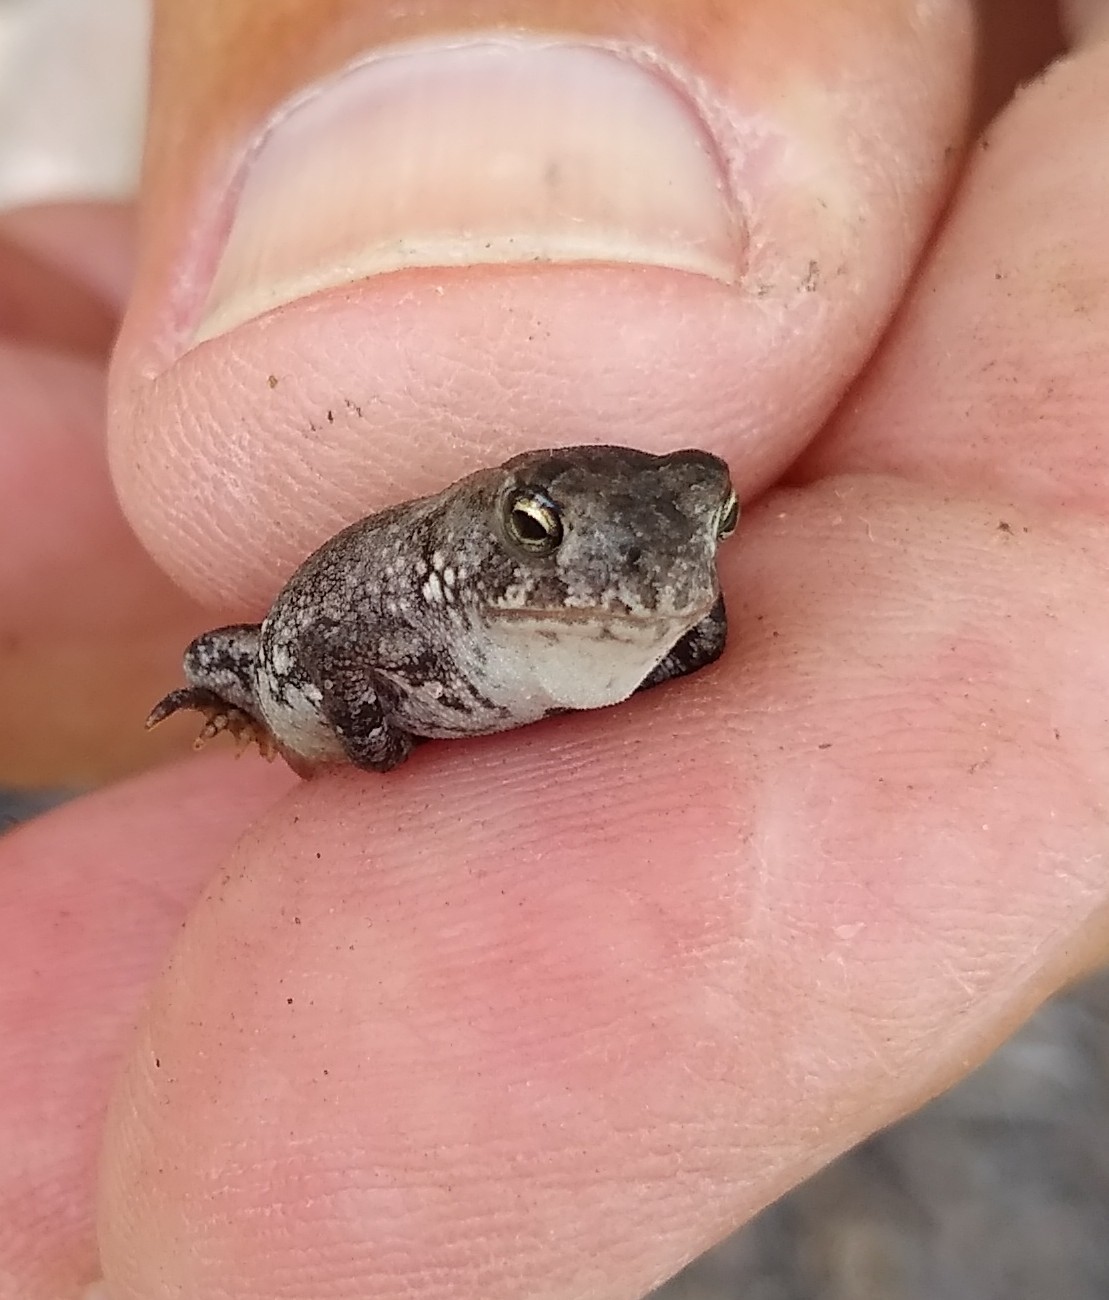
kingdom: Animalia
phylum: Chordata
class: Amphibia
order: Anura
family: Bufonidae
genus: Anaxyrus
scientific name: Anaxyrus terrestris
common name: Southern toad
